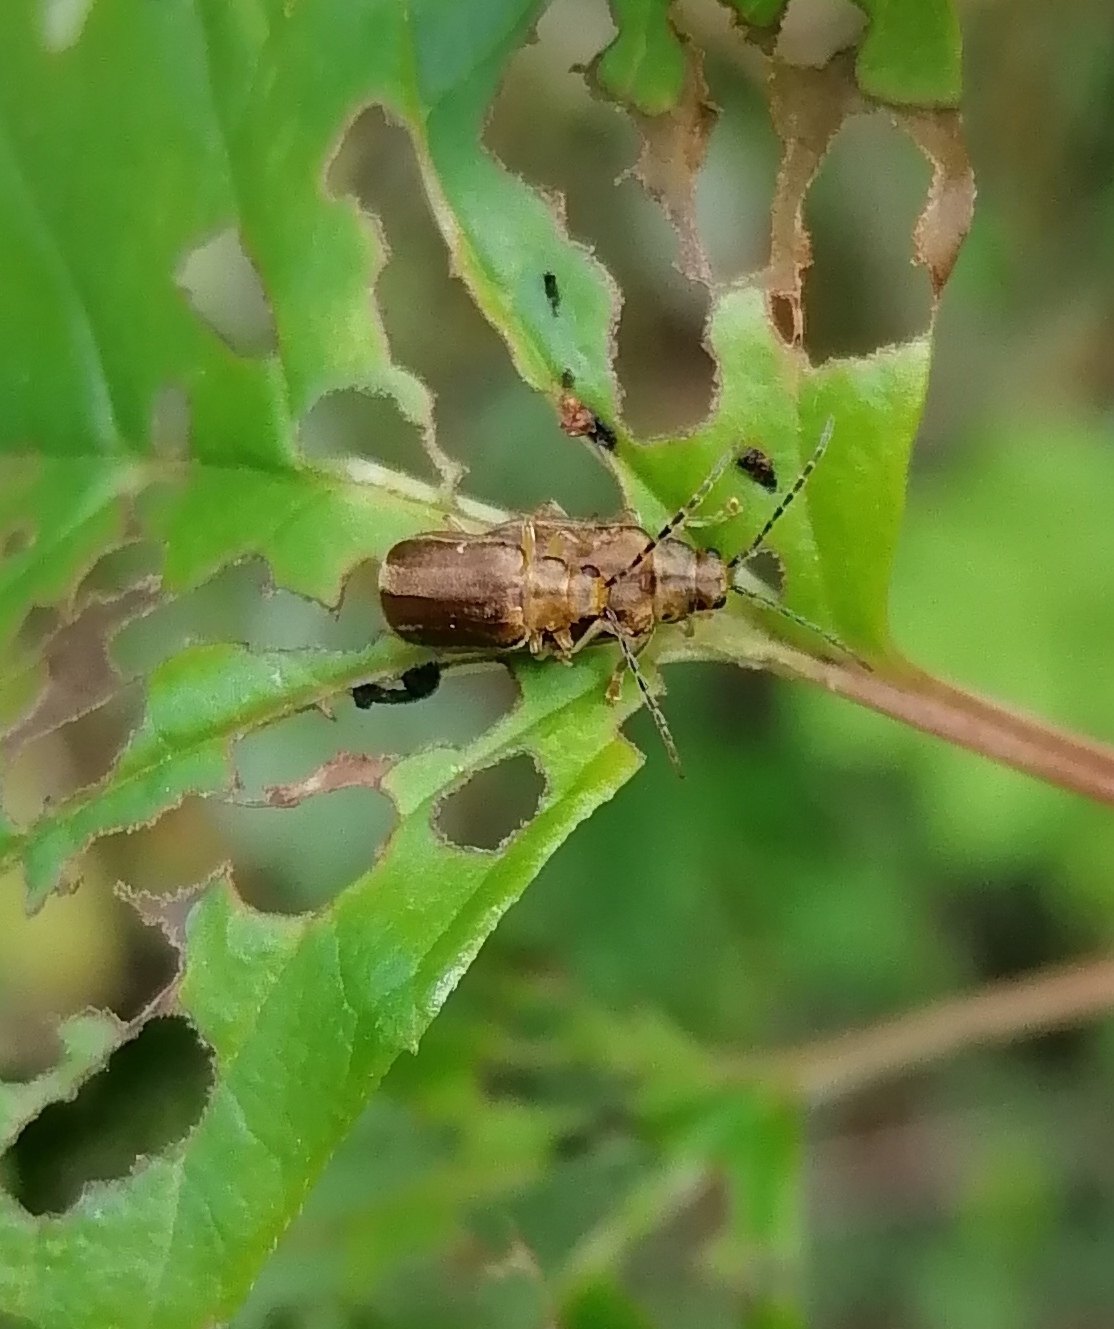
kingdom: Animalia
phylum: Arthropoda
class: Insecta
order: Coleoptera
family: Chrysomelidae
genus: Pyrrhalta
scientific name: Pyrrhalta viburni
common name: Guelder-rose leaf beetle
